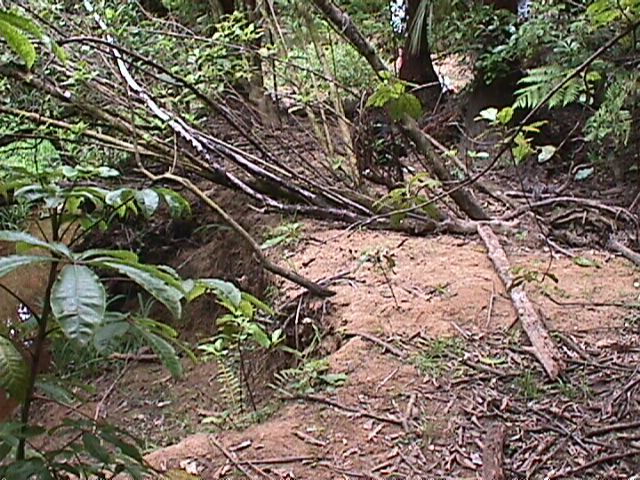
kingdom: Plantae
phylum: Tracheophyta
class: Magnoliopsida
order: Apiales
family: Araliaceae
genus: Schefflera
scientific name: Schefflera digitata
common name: Pate
